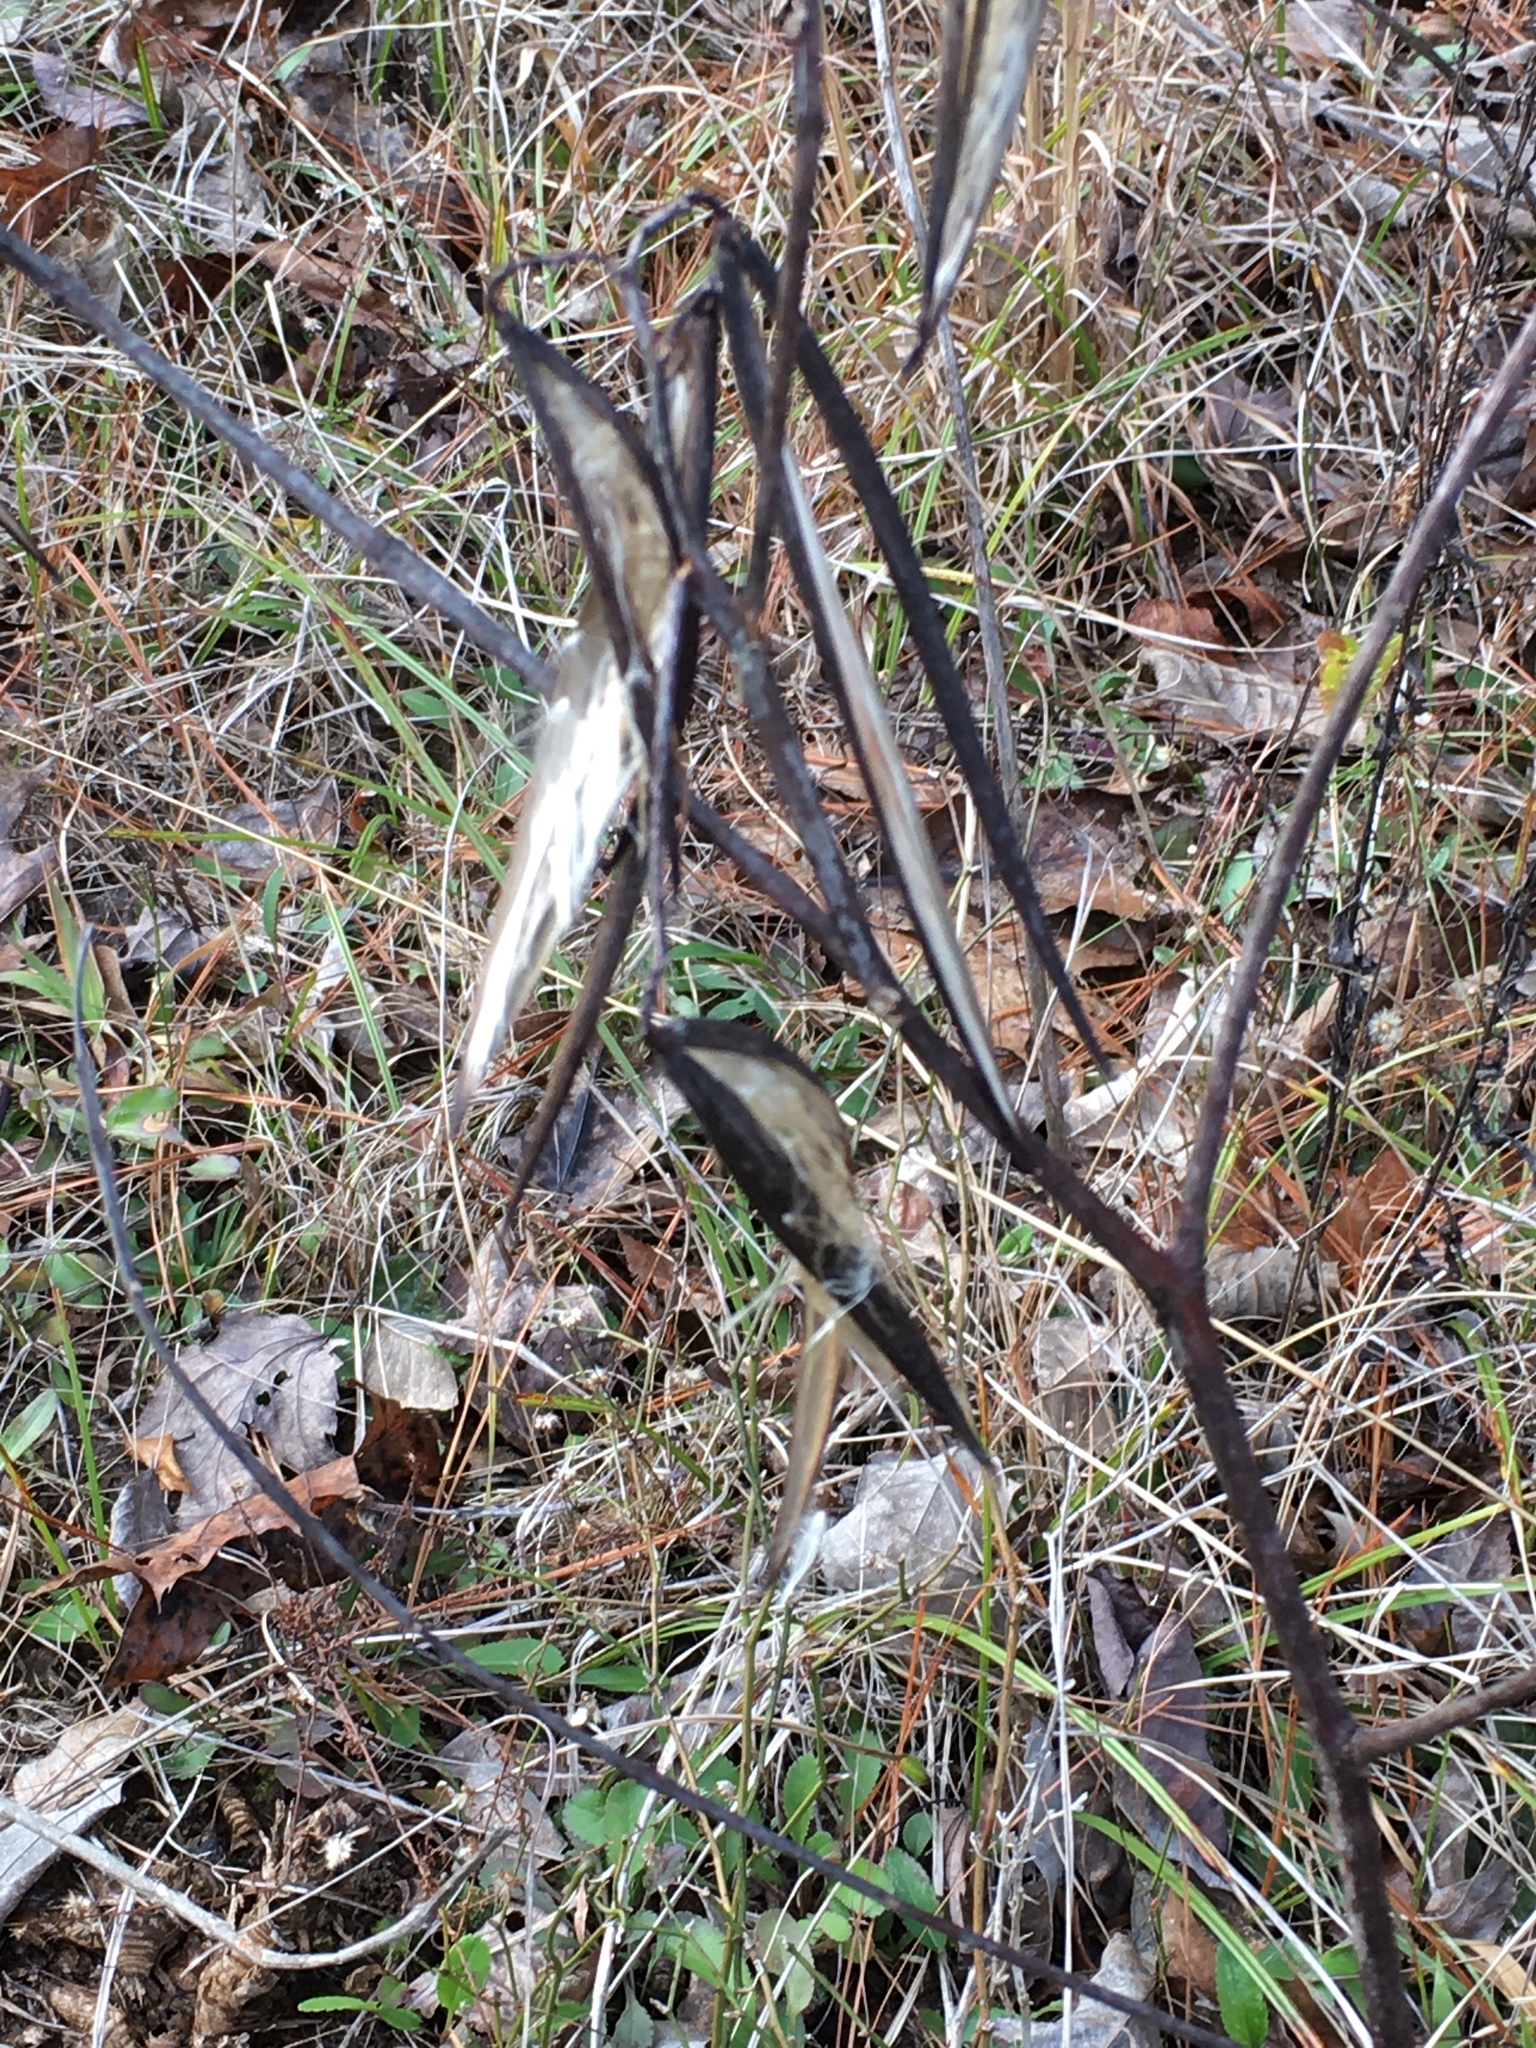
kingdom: Plantae
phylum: Tracheophyta
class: Magnoliopsida
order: Gentianales
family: Apocynaceae
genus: Apocynum
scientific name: Apocynum cannabinum
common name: Hemp dogbane
